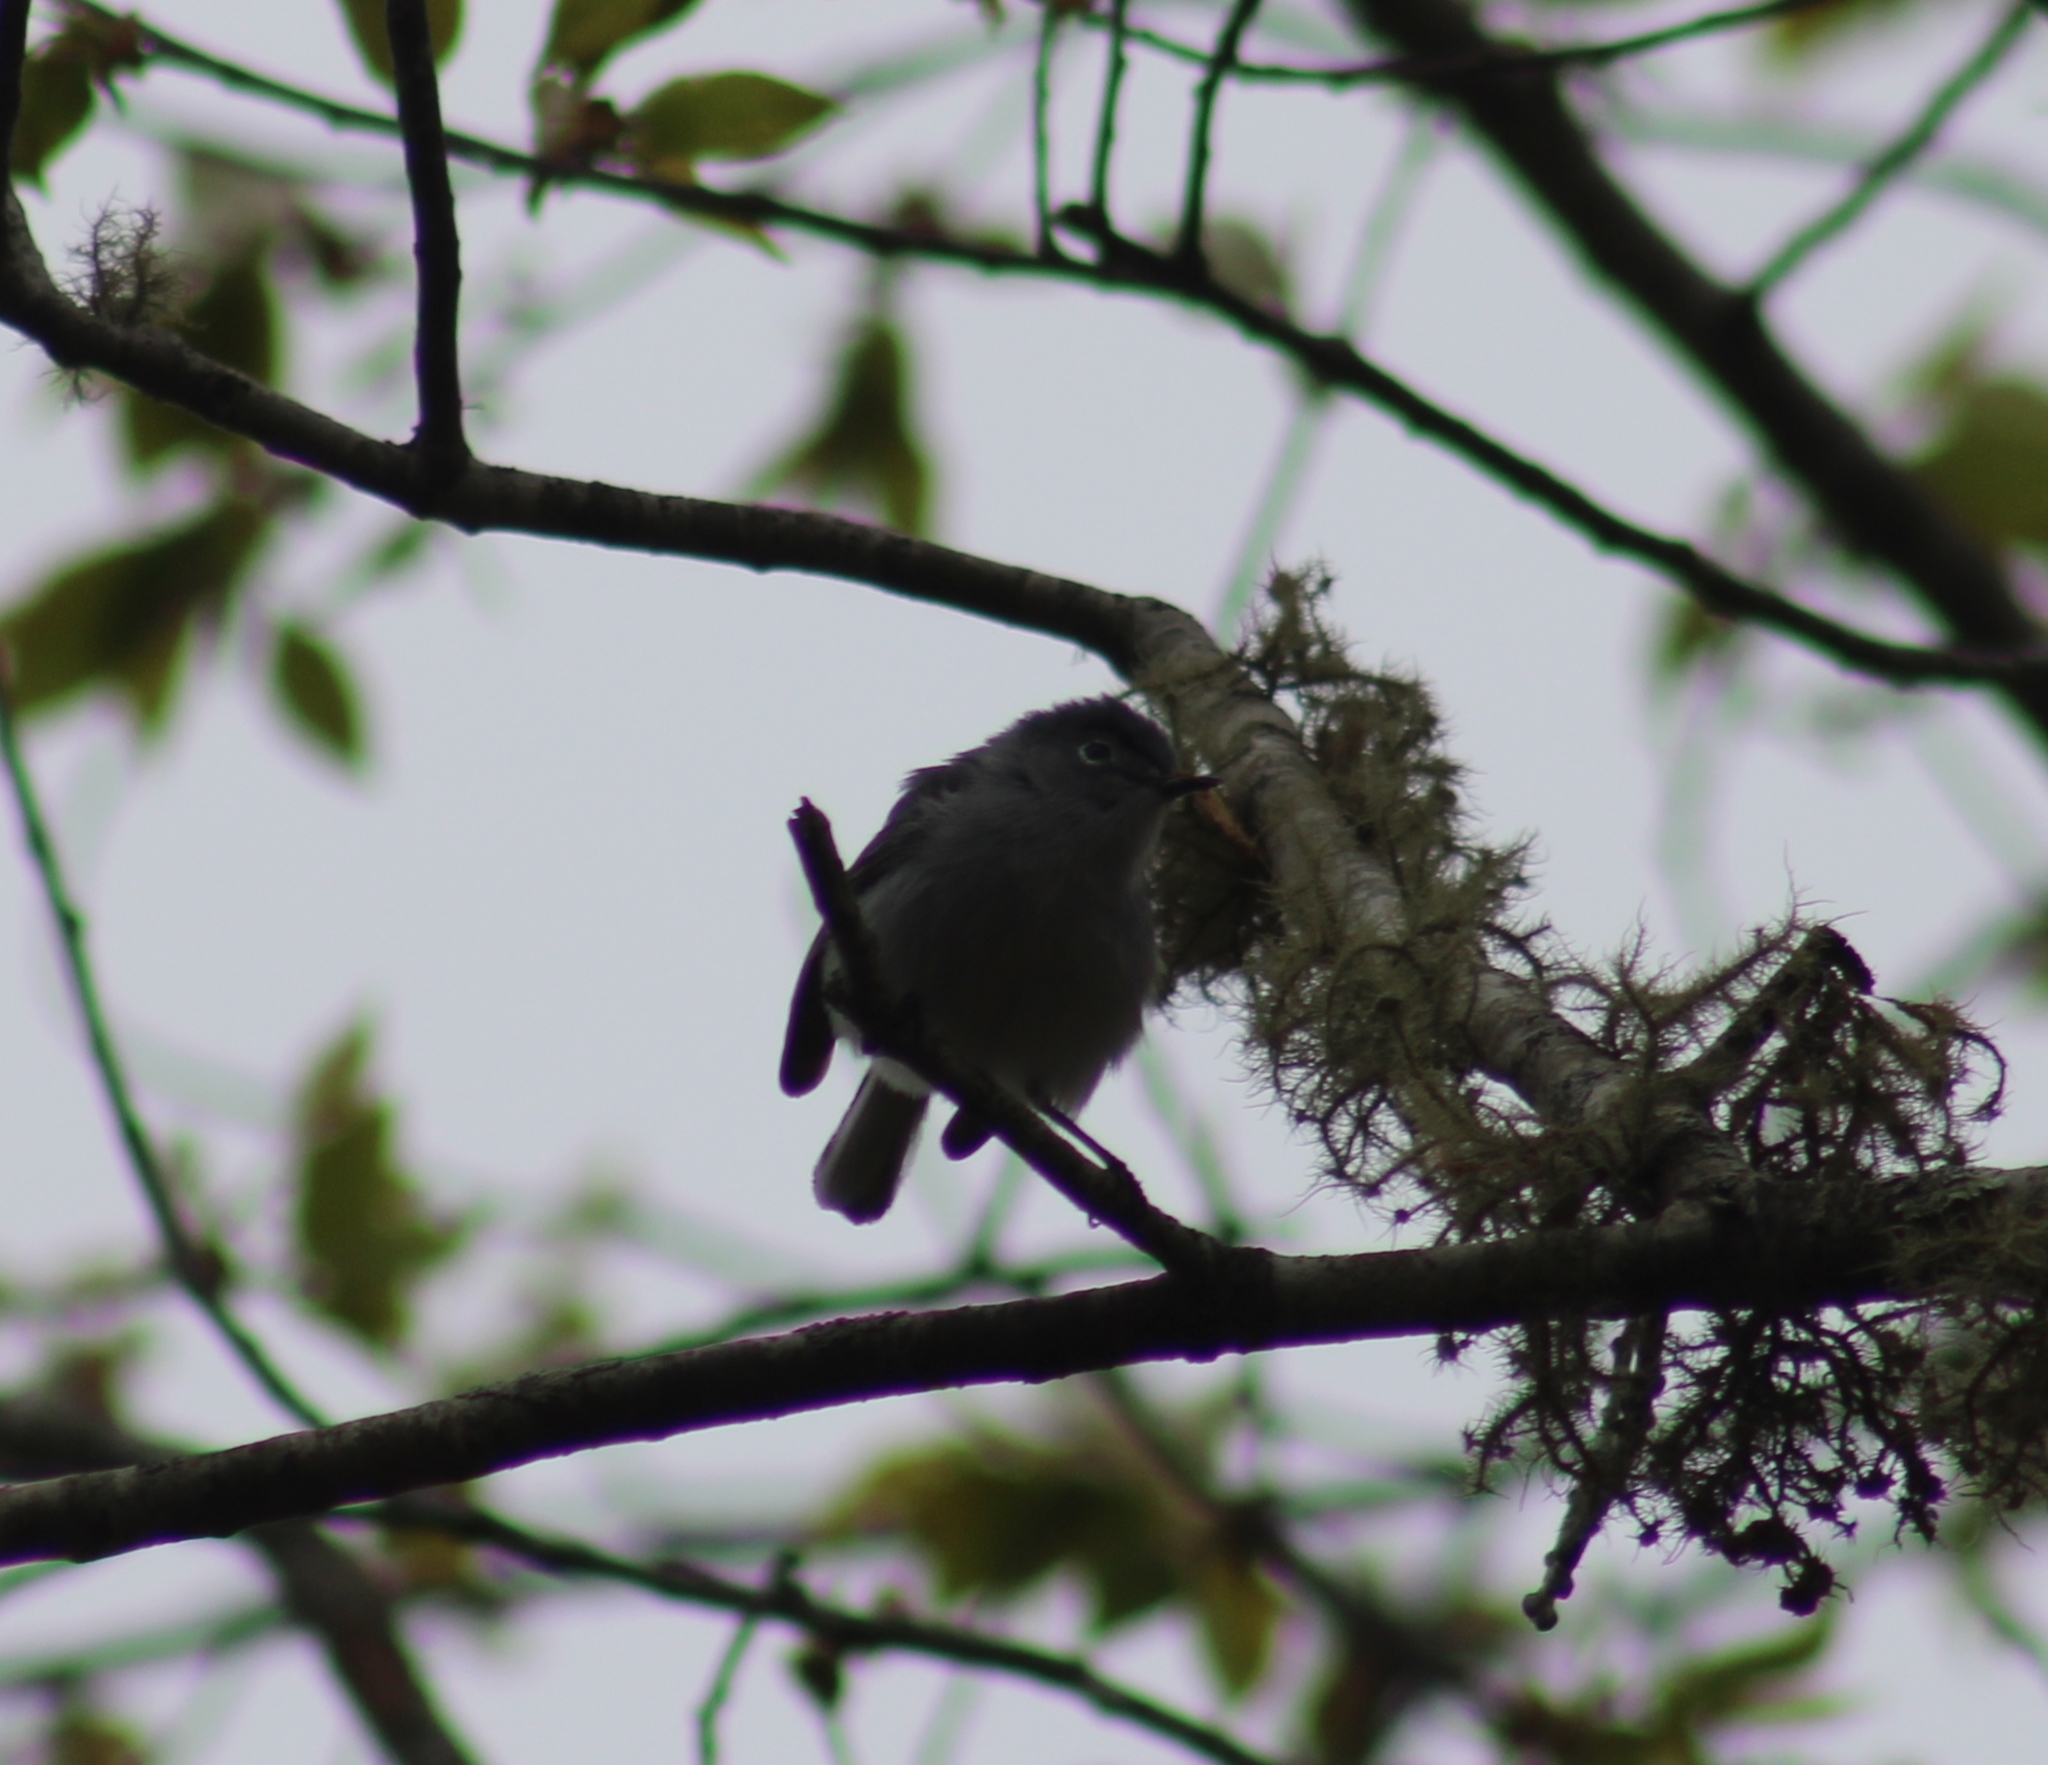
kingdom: Animalia
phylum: Chordata
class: Aves
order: Passeriformes
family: Polioptilidae
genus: Polioptila
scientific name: Polioptila caerulea
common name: Blue-gray gnatcatcher
